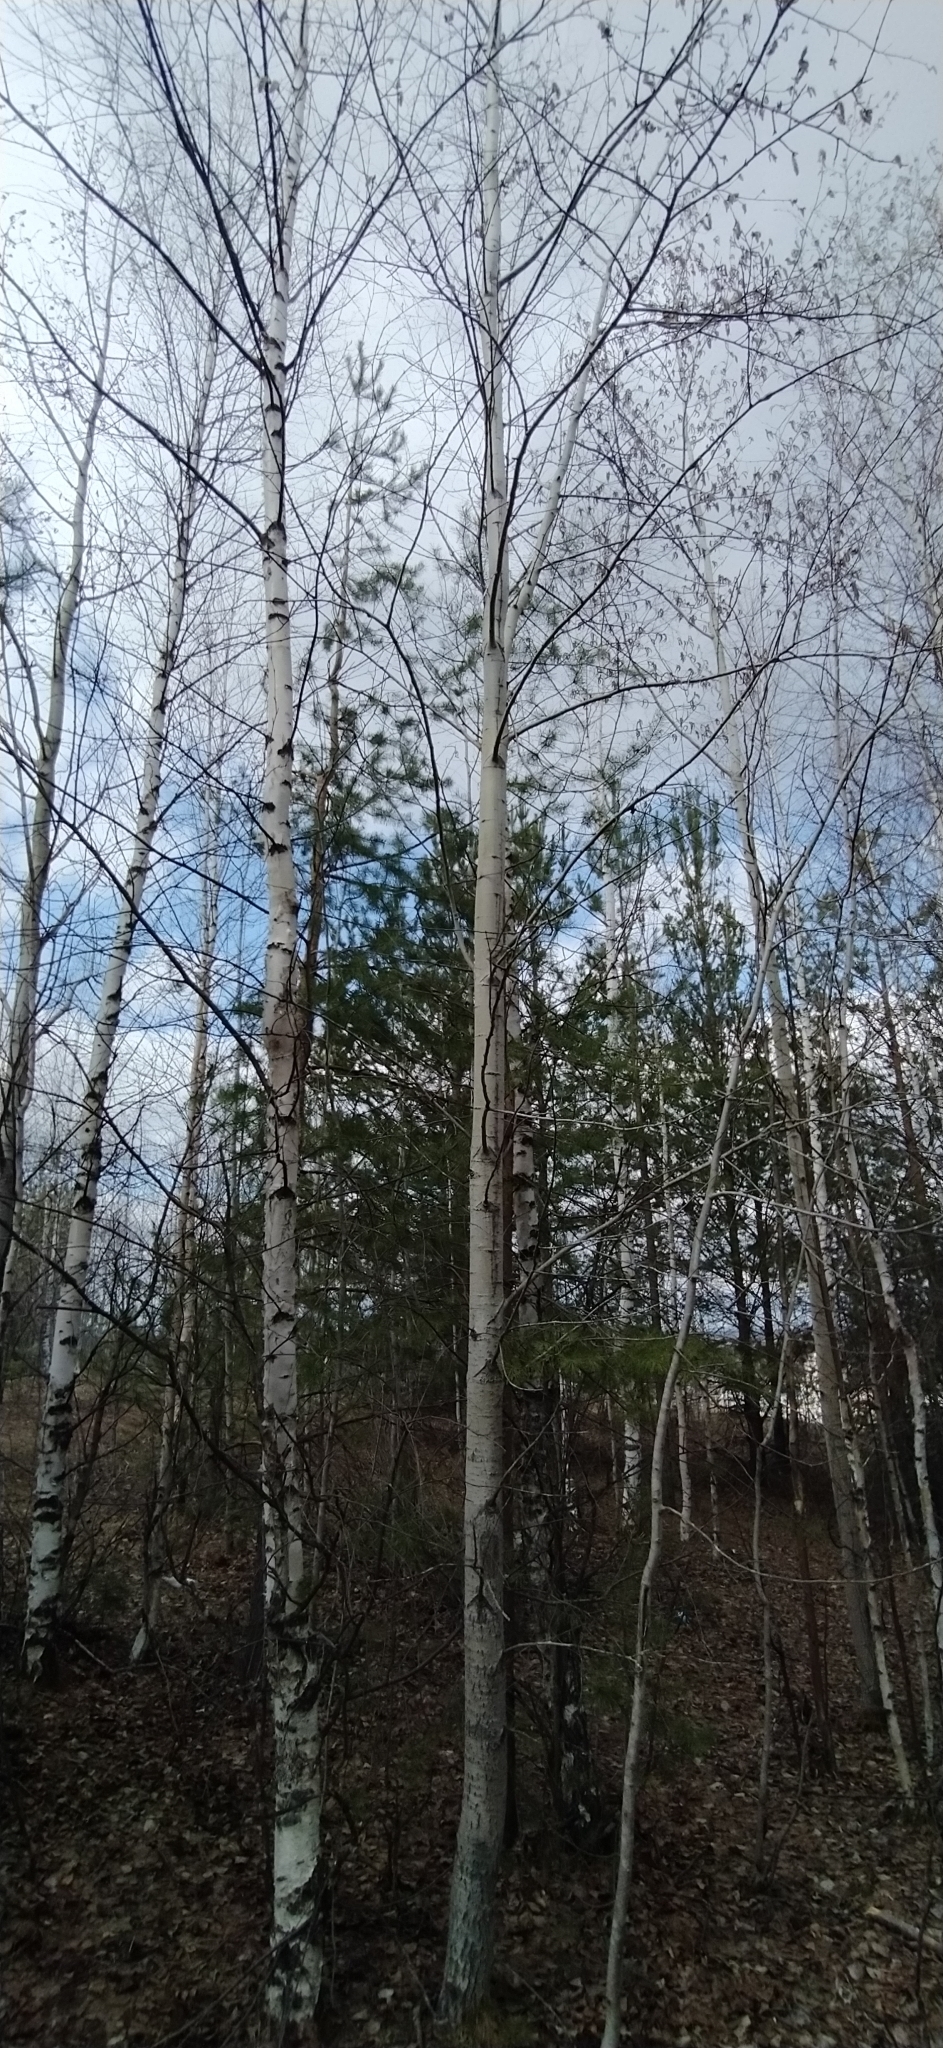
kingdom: Plantae
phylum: Tracheophyta
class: Magnoliopsida
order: Malpighiales
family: Salicaceae
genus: Populus
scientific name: Populus tremula
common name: European aspen
